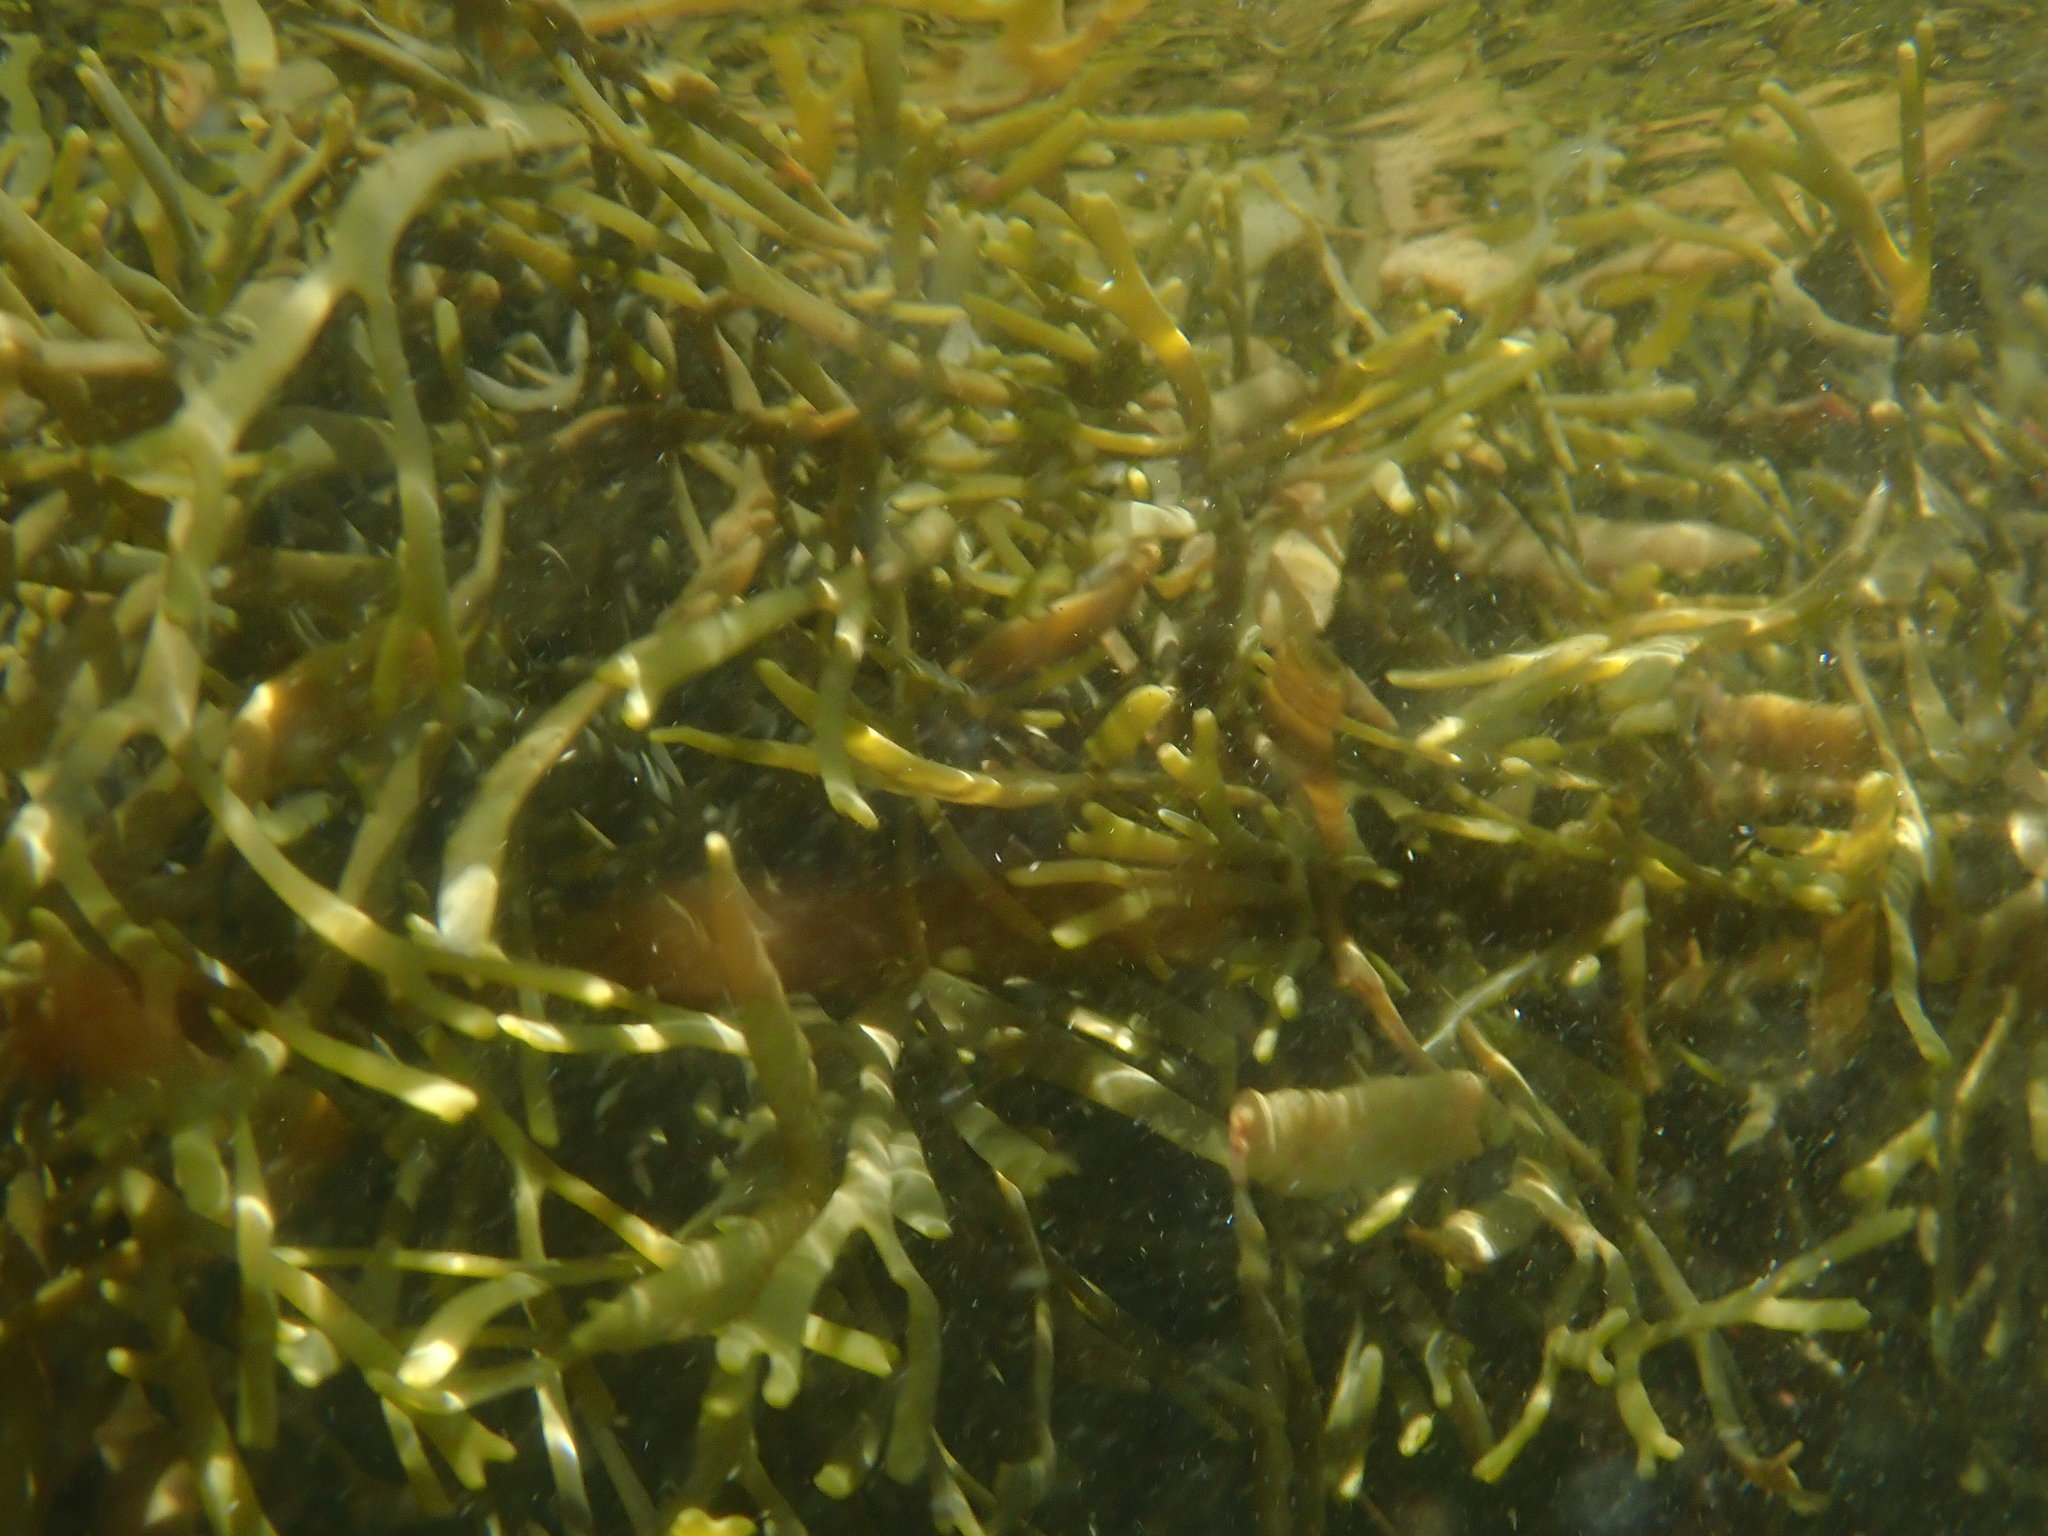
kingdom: Chromista
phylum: Ochrophyta
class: Phaeophyceae
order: Fucales
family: Fucaceae
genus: Silvetia
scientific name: Silvetia
